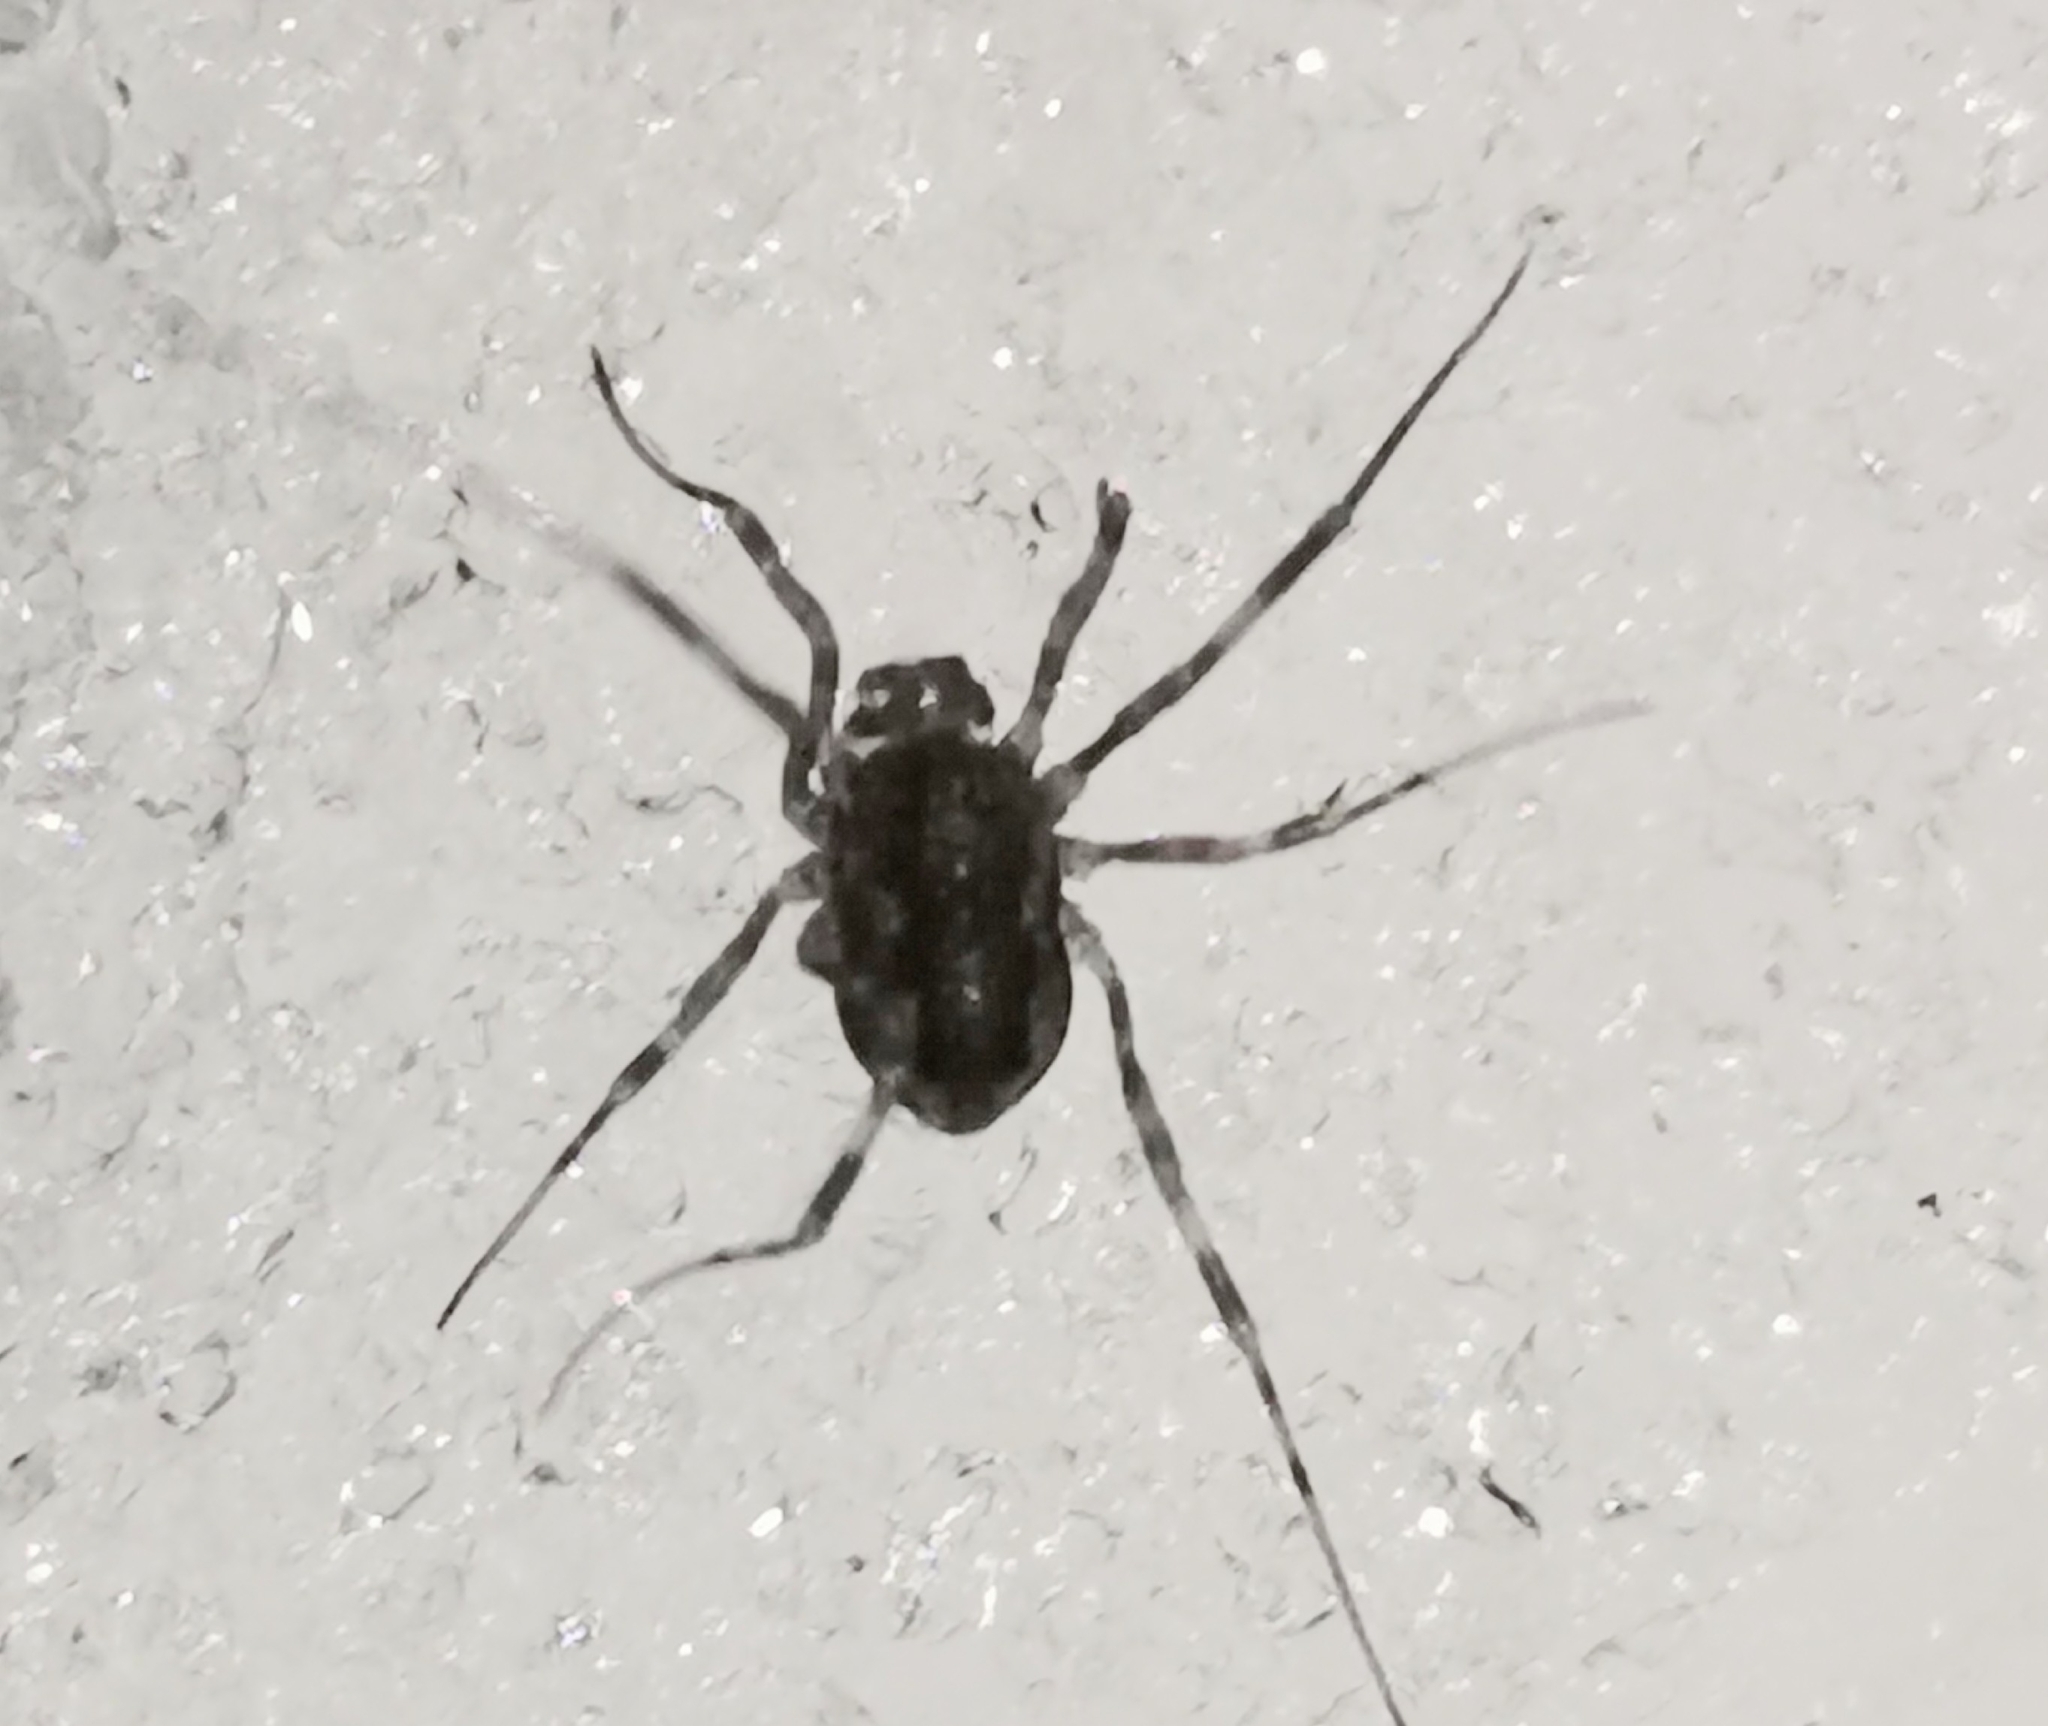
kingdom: Animalia
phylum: Arthropoda
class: Arachnida
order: Opiliones
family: Phalangiidae
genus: Rilaena
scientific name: Rilaena triangularis
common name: Spring harvestman
